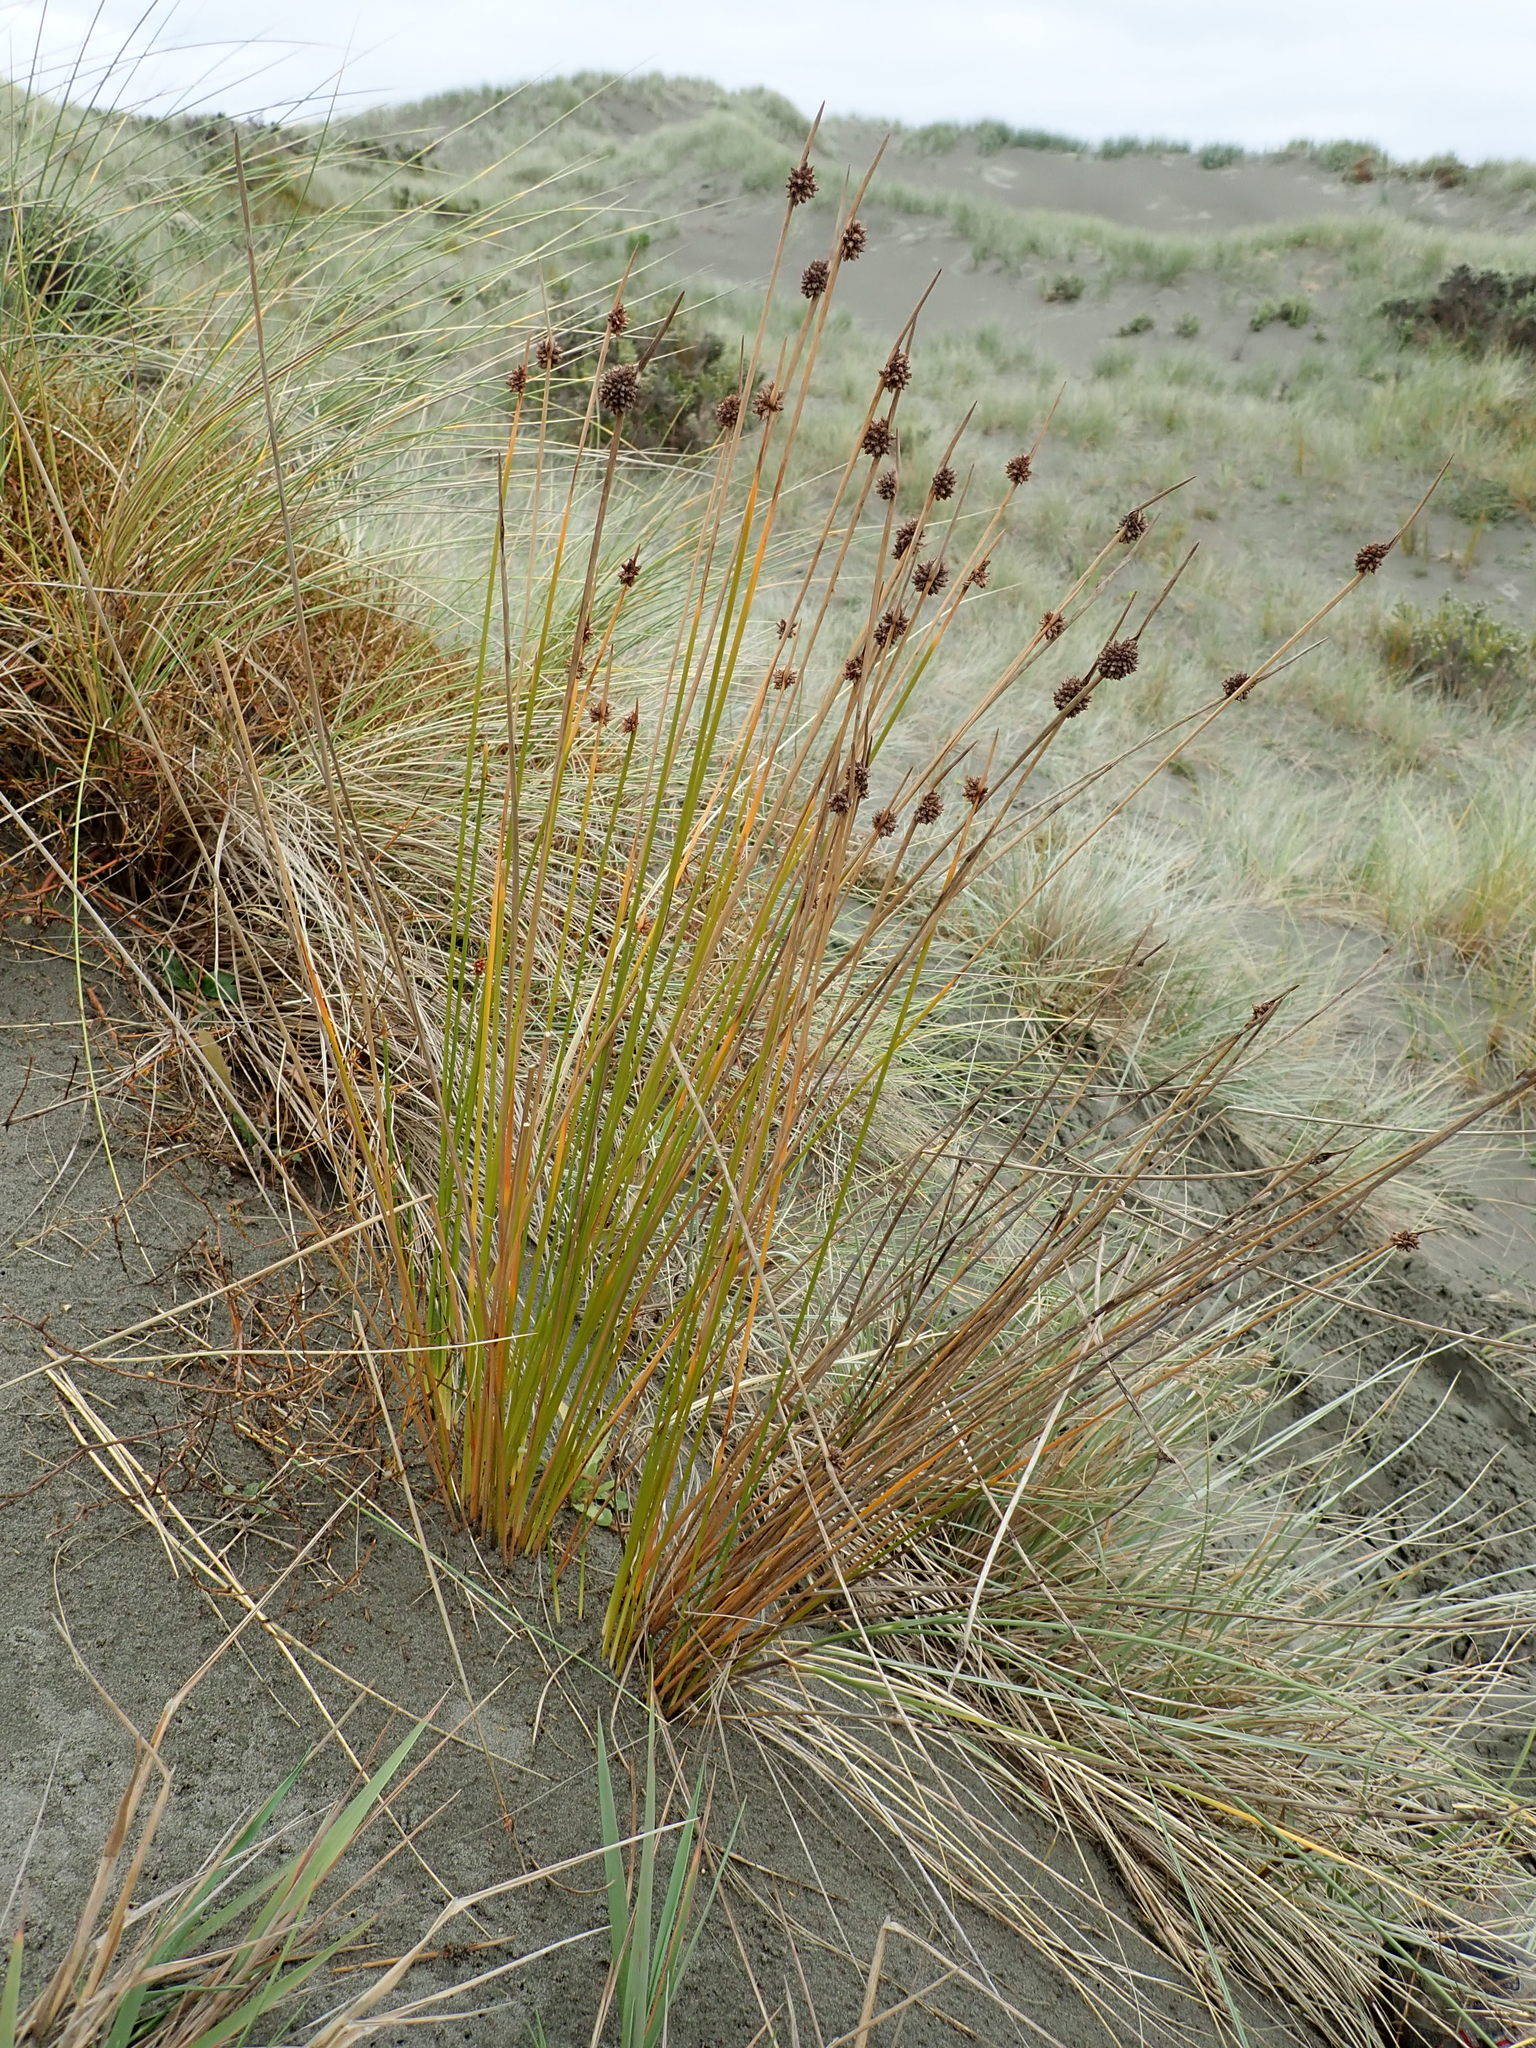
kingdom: Plantae
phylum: Tracheophyta
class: Liliopsida
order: Poales
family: Cyperaceae
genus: Ficinia
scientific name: Ficinia nodosa
